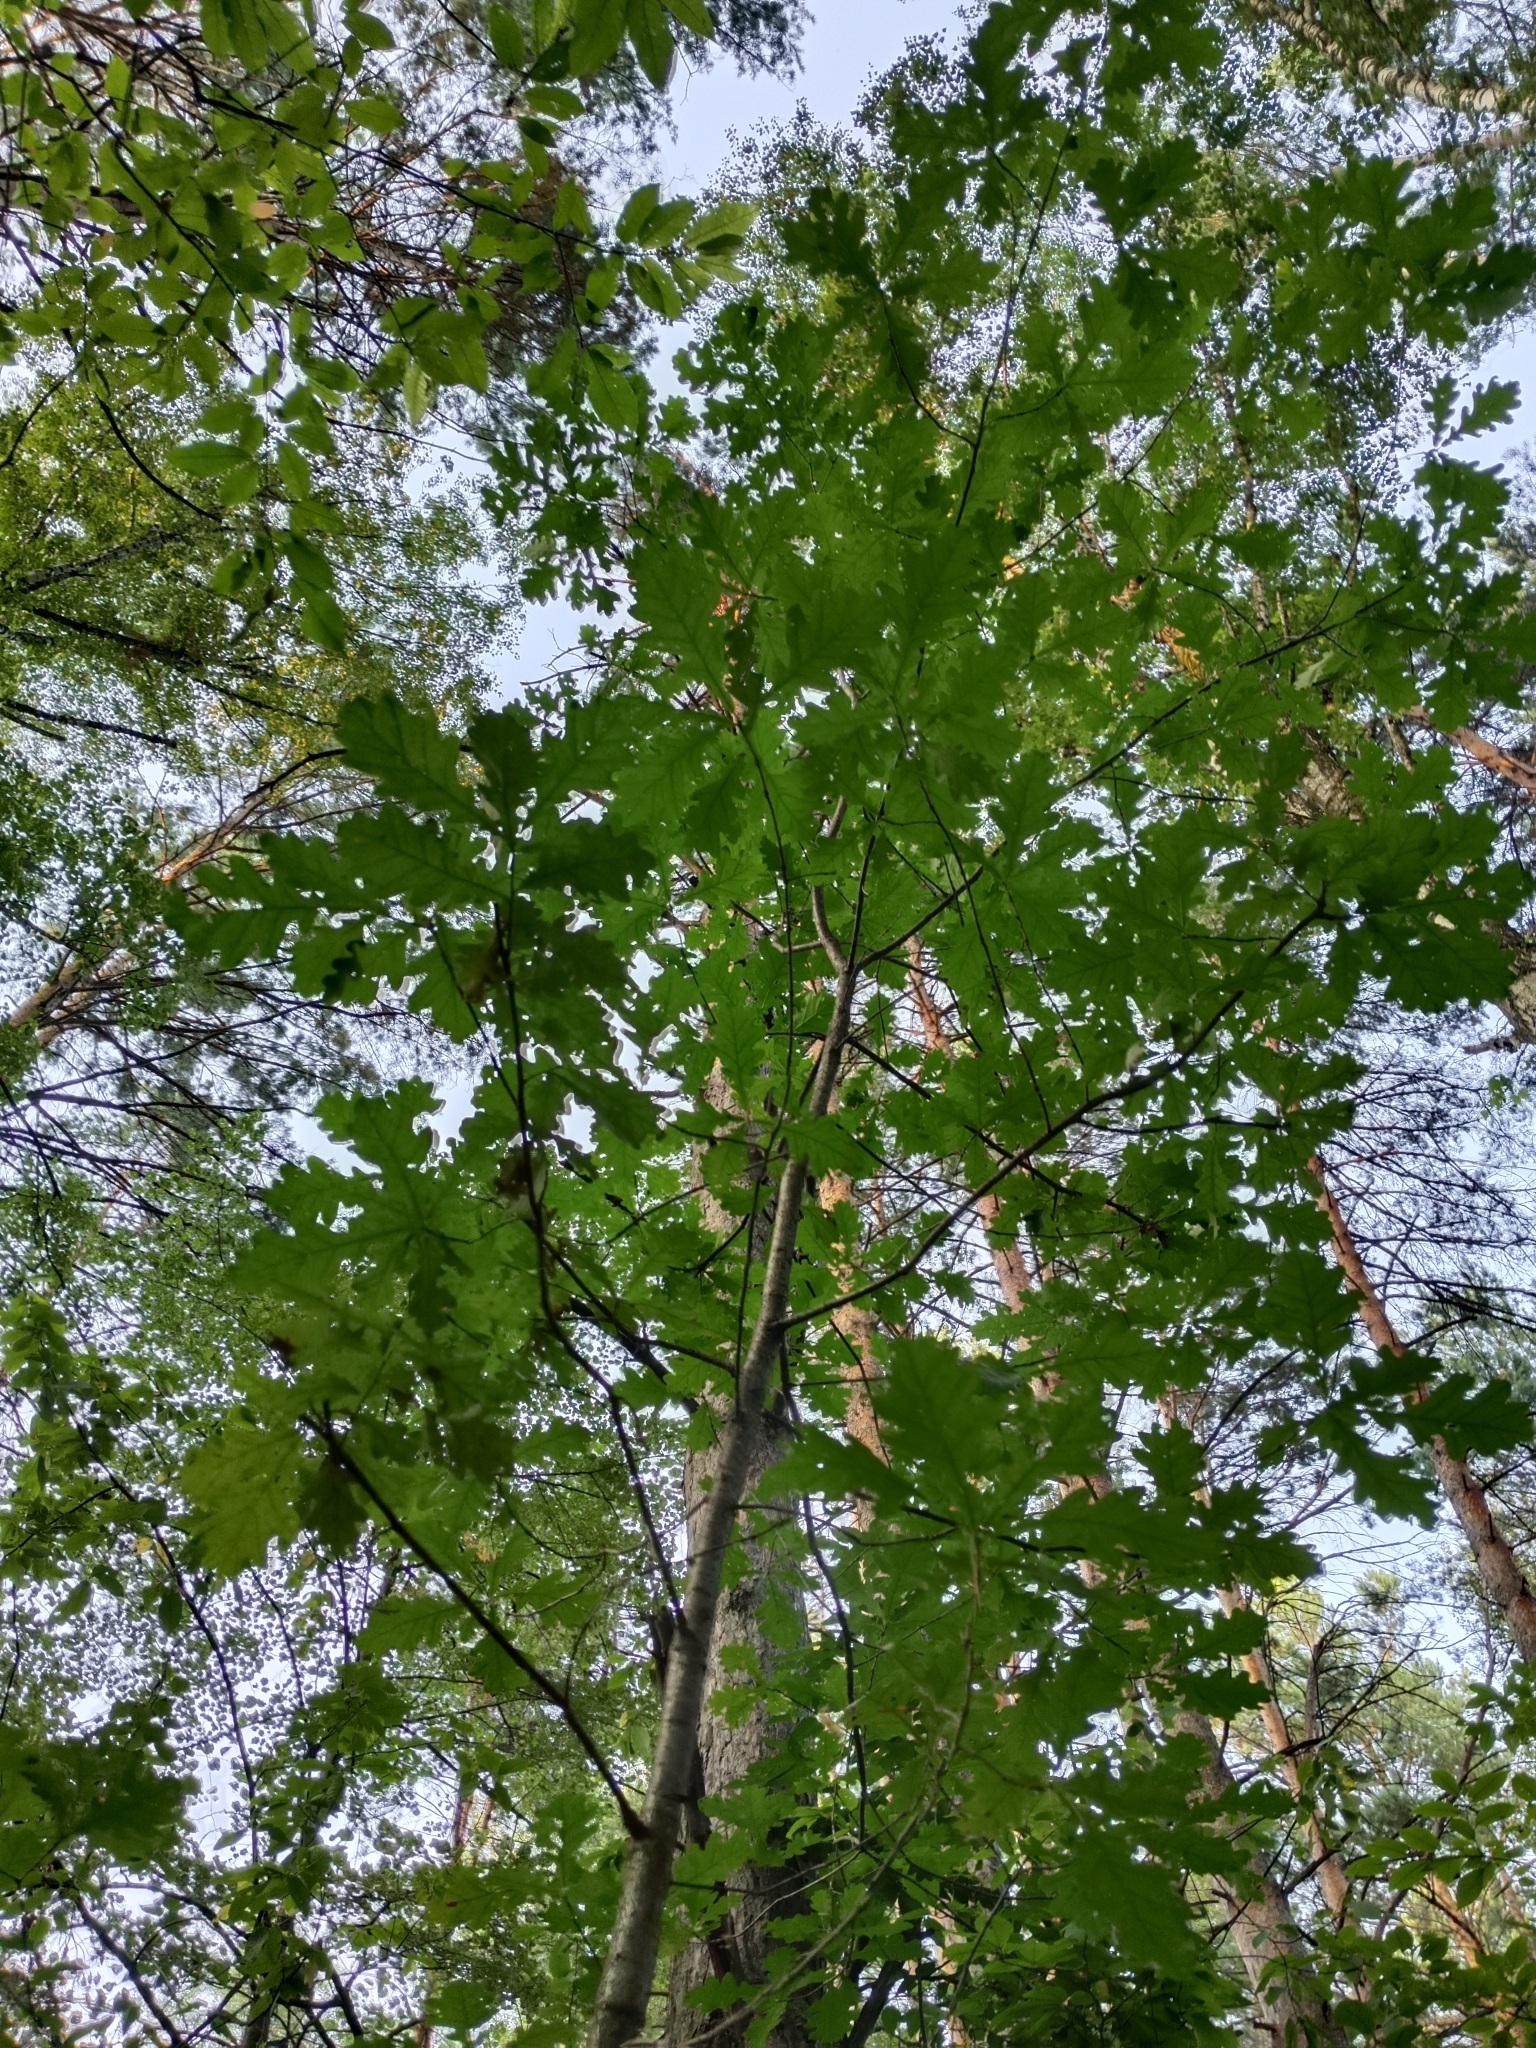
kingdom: Plantae
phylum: Tracheophyta
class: Magnoliopsida
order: Fagales
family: Fagaceae
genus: Quercus
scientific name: Quercus robur
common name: Pedunculate oak
